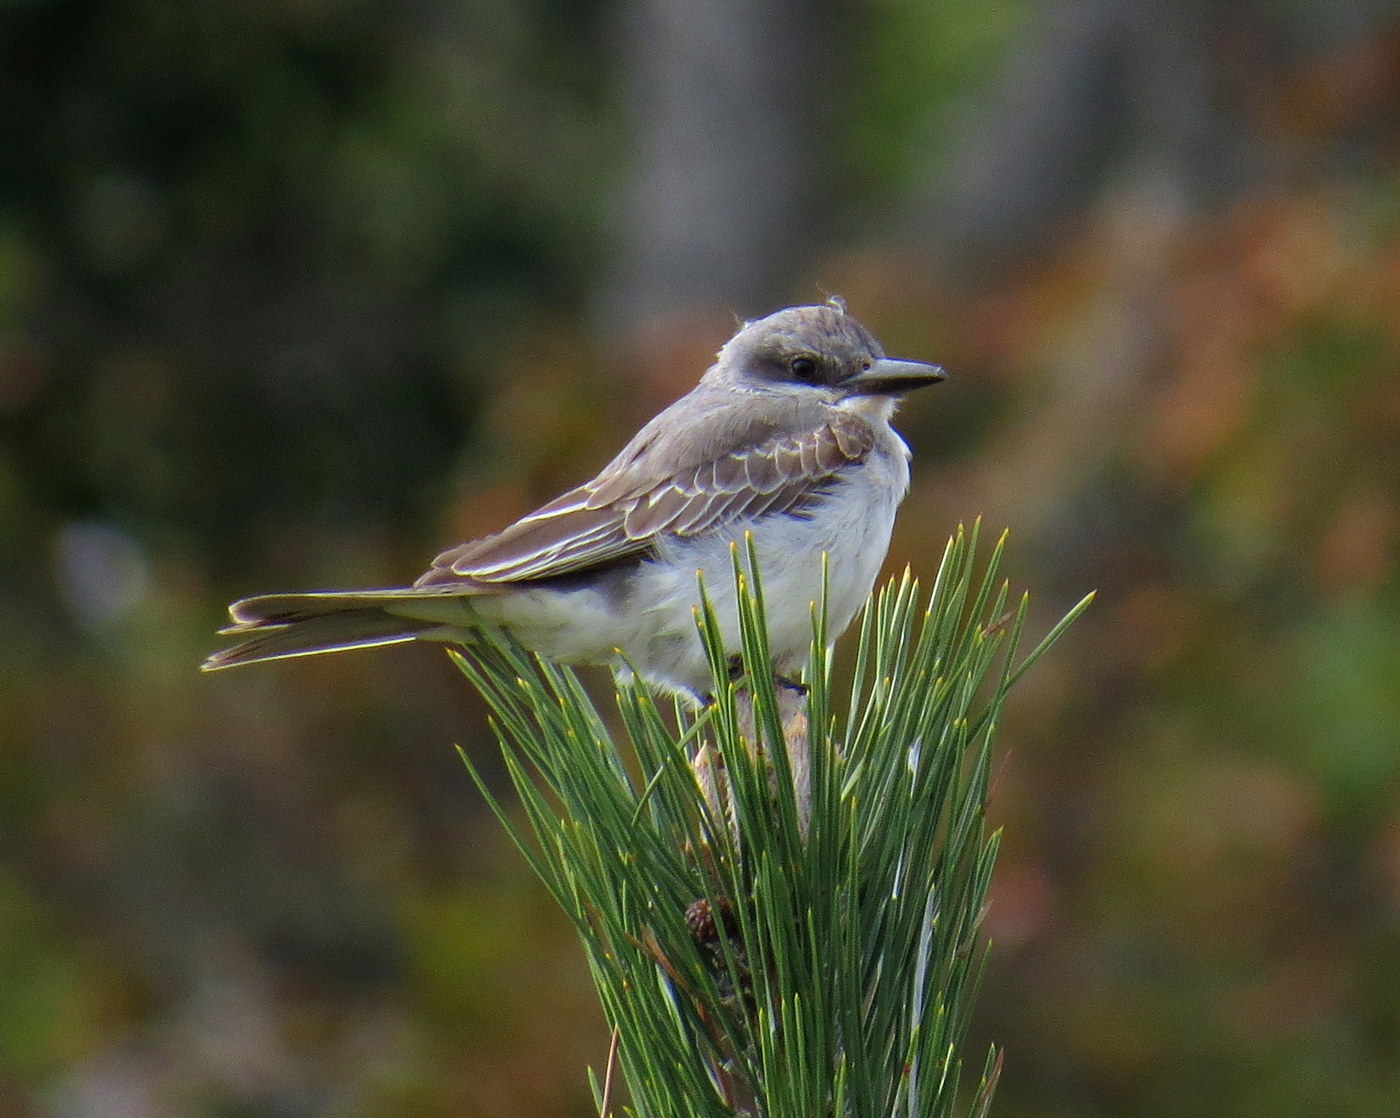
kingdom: Animalia
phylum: Chordata
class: Aves
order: Passeriformes
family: Tyrannidae
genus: Tyrannus
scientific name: Tyrannus dominicensis
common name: Gray kingbird
